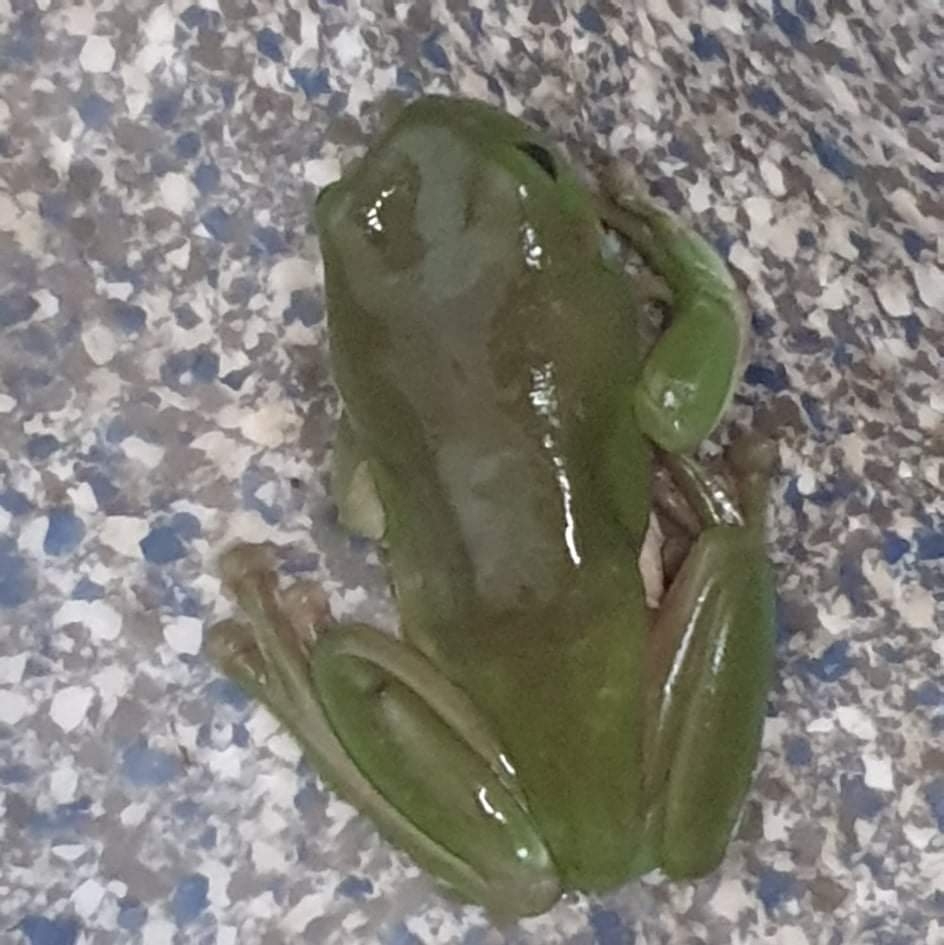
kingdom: Animalia
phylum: Chordata
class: Amphibia
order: Anura
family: Pelodryadidae
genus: Ranoidea
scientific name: Ranoidea caerulea
